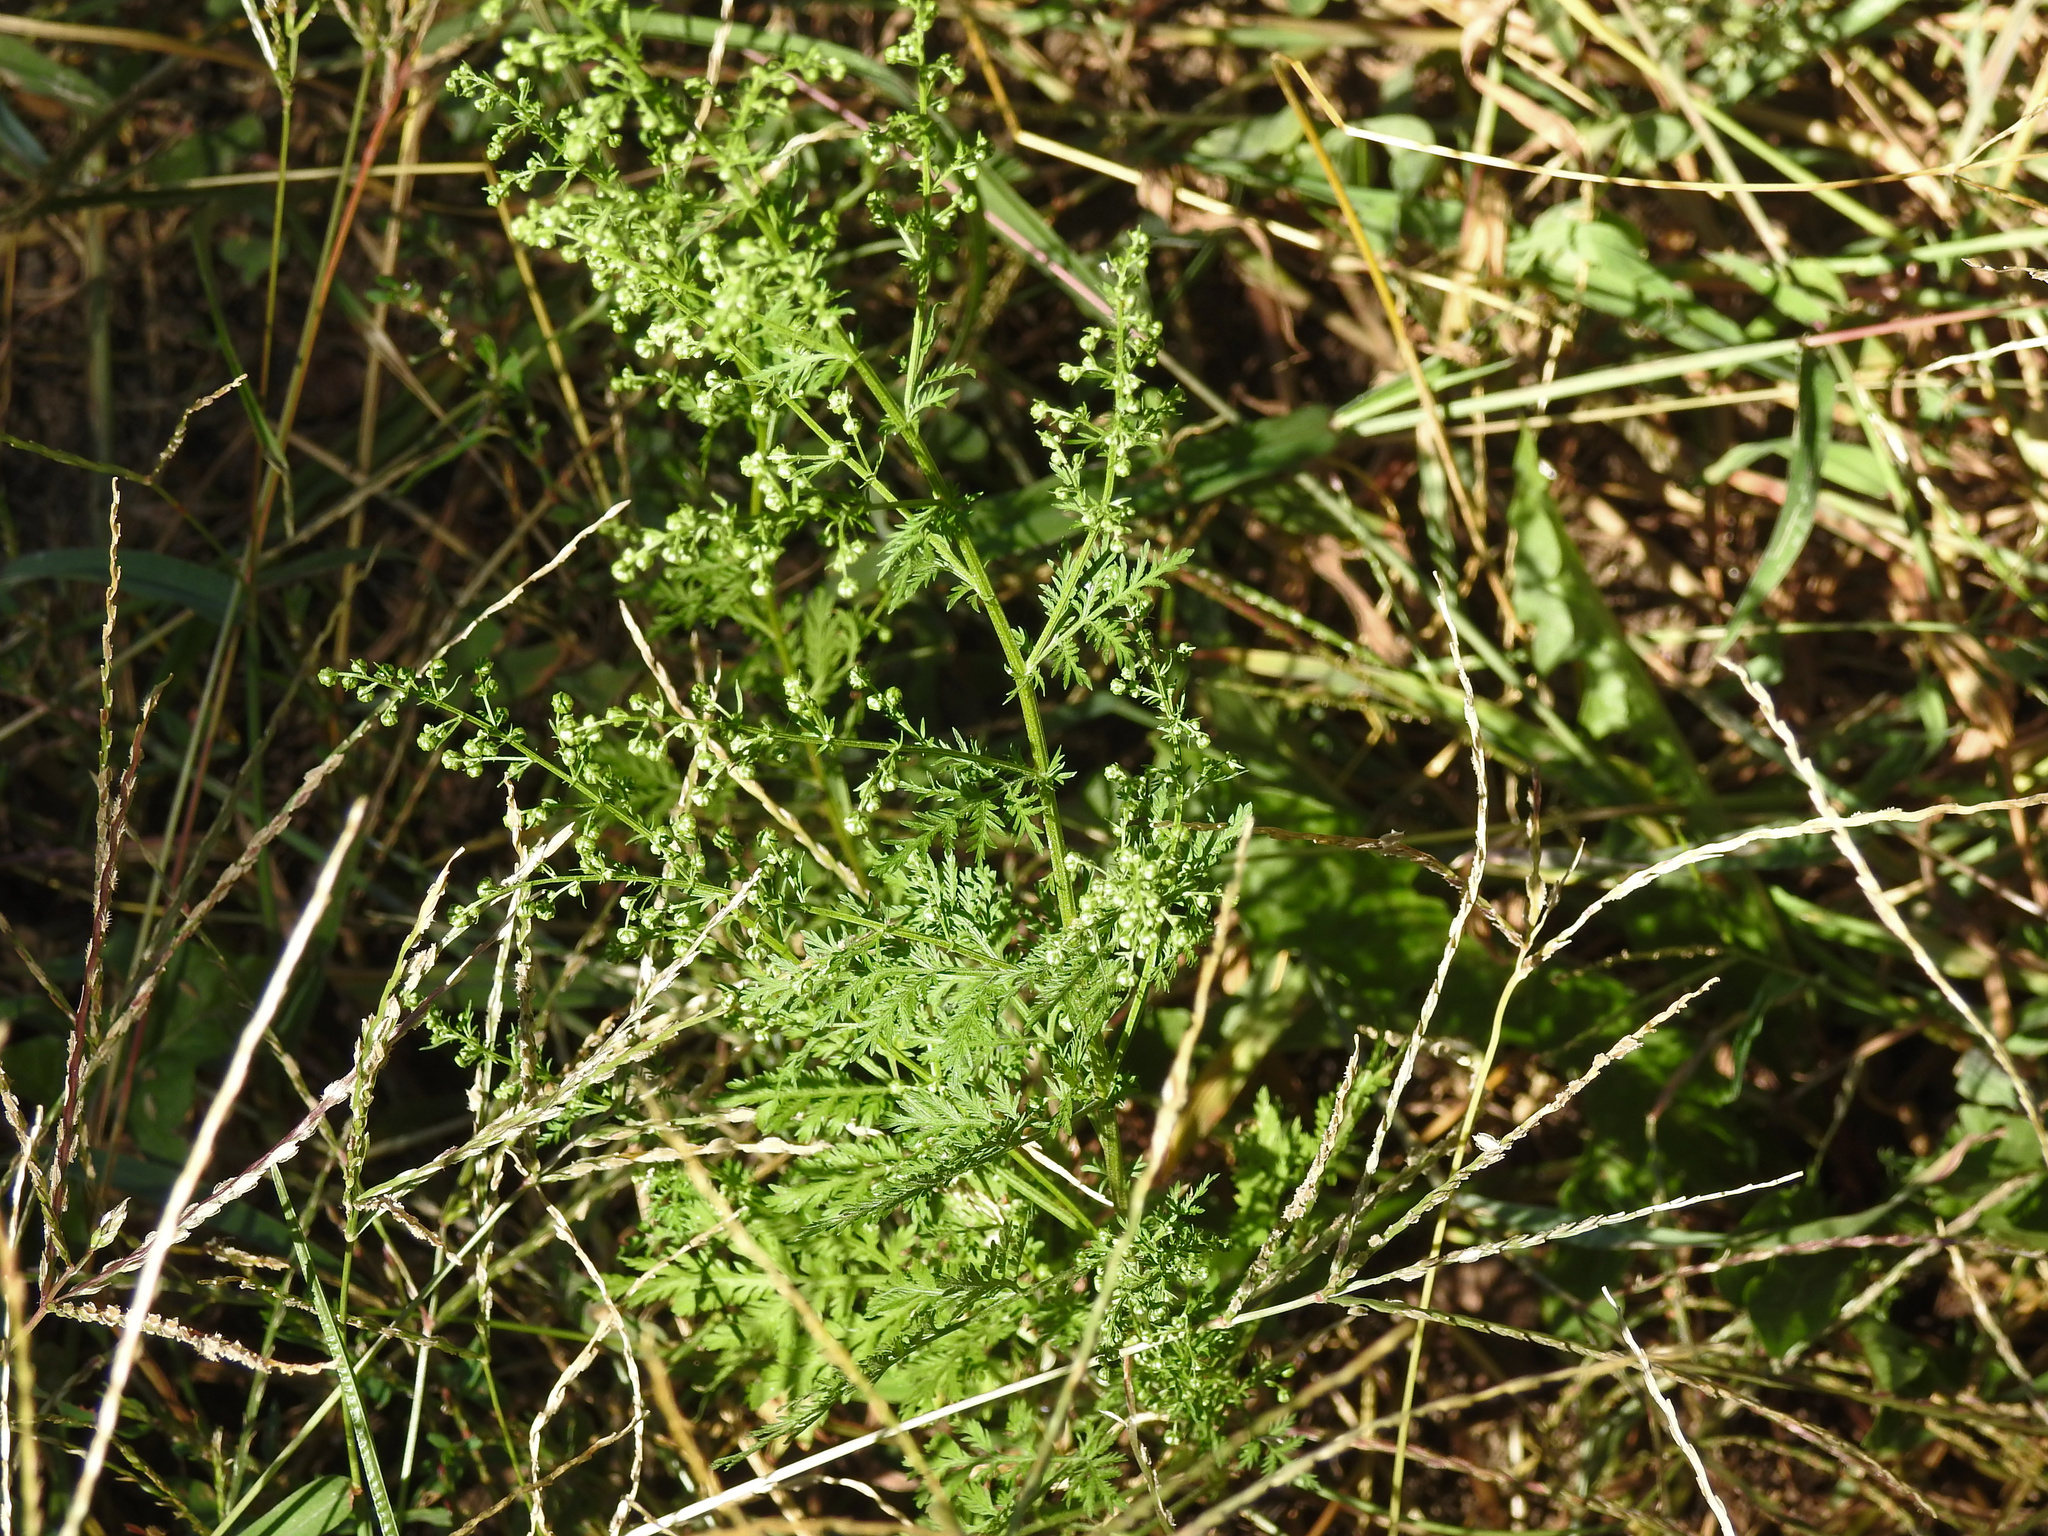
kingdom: Plantae
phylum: Tracheophyta
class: Magnoliopsida
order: Asterales
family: Asteraceae
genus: Artemisia
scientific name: Artemisia annua
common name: Sweet sagewort
